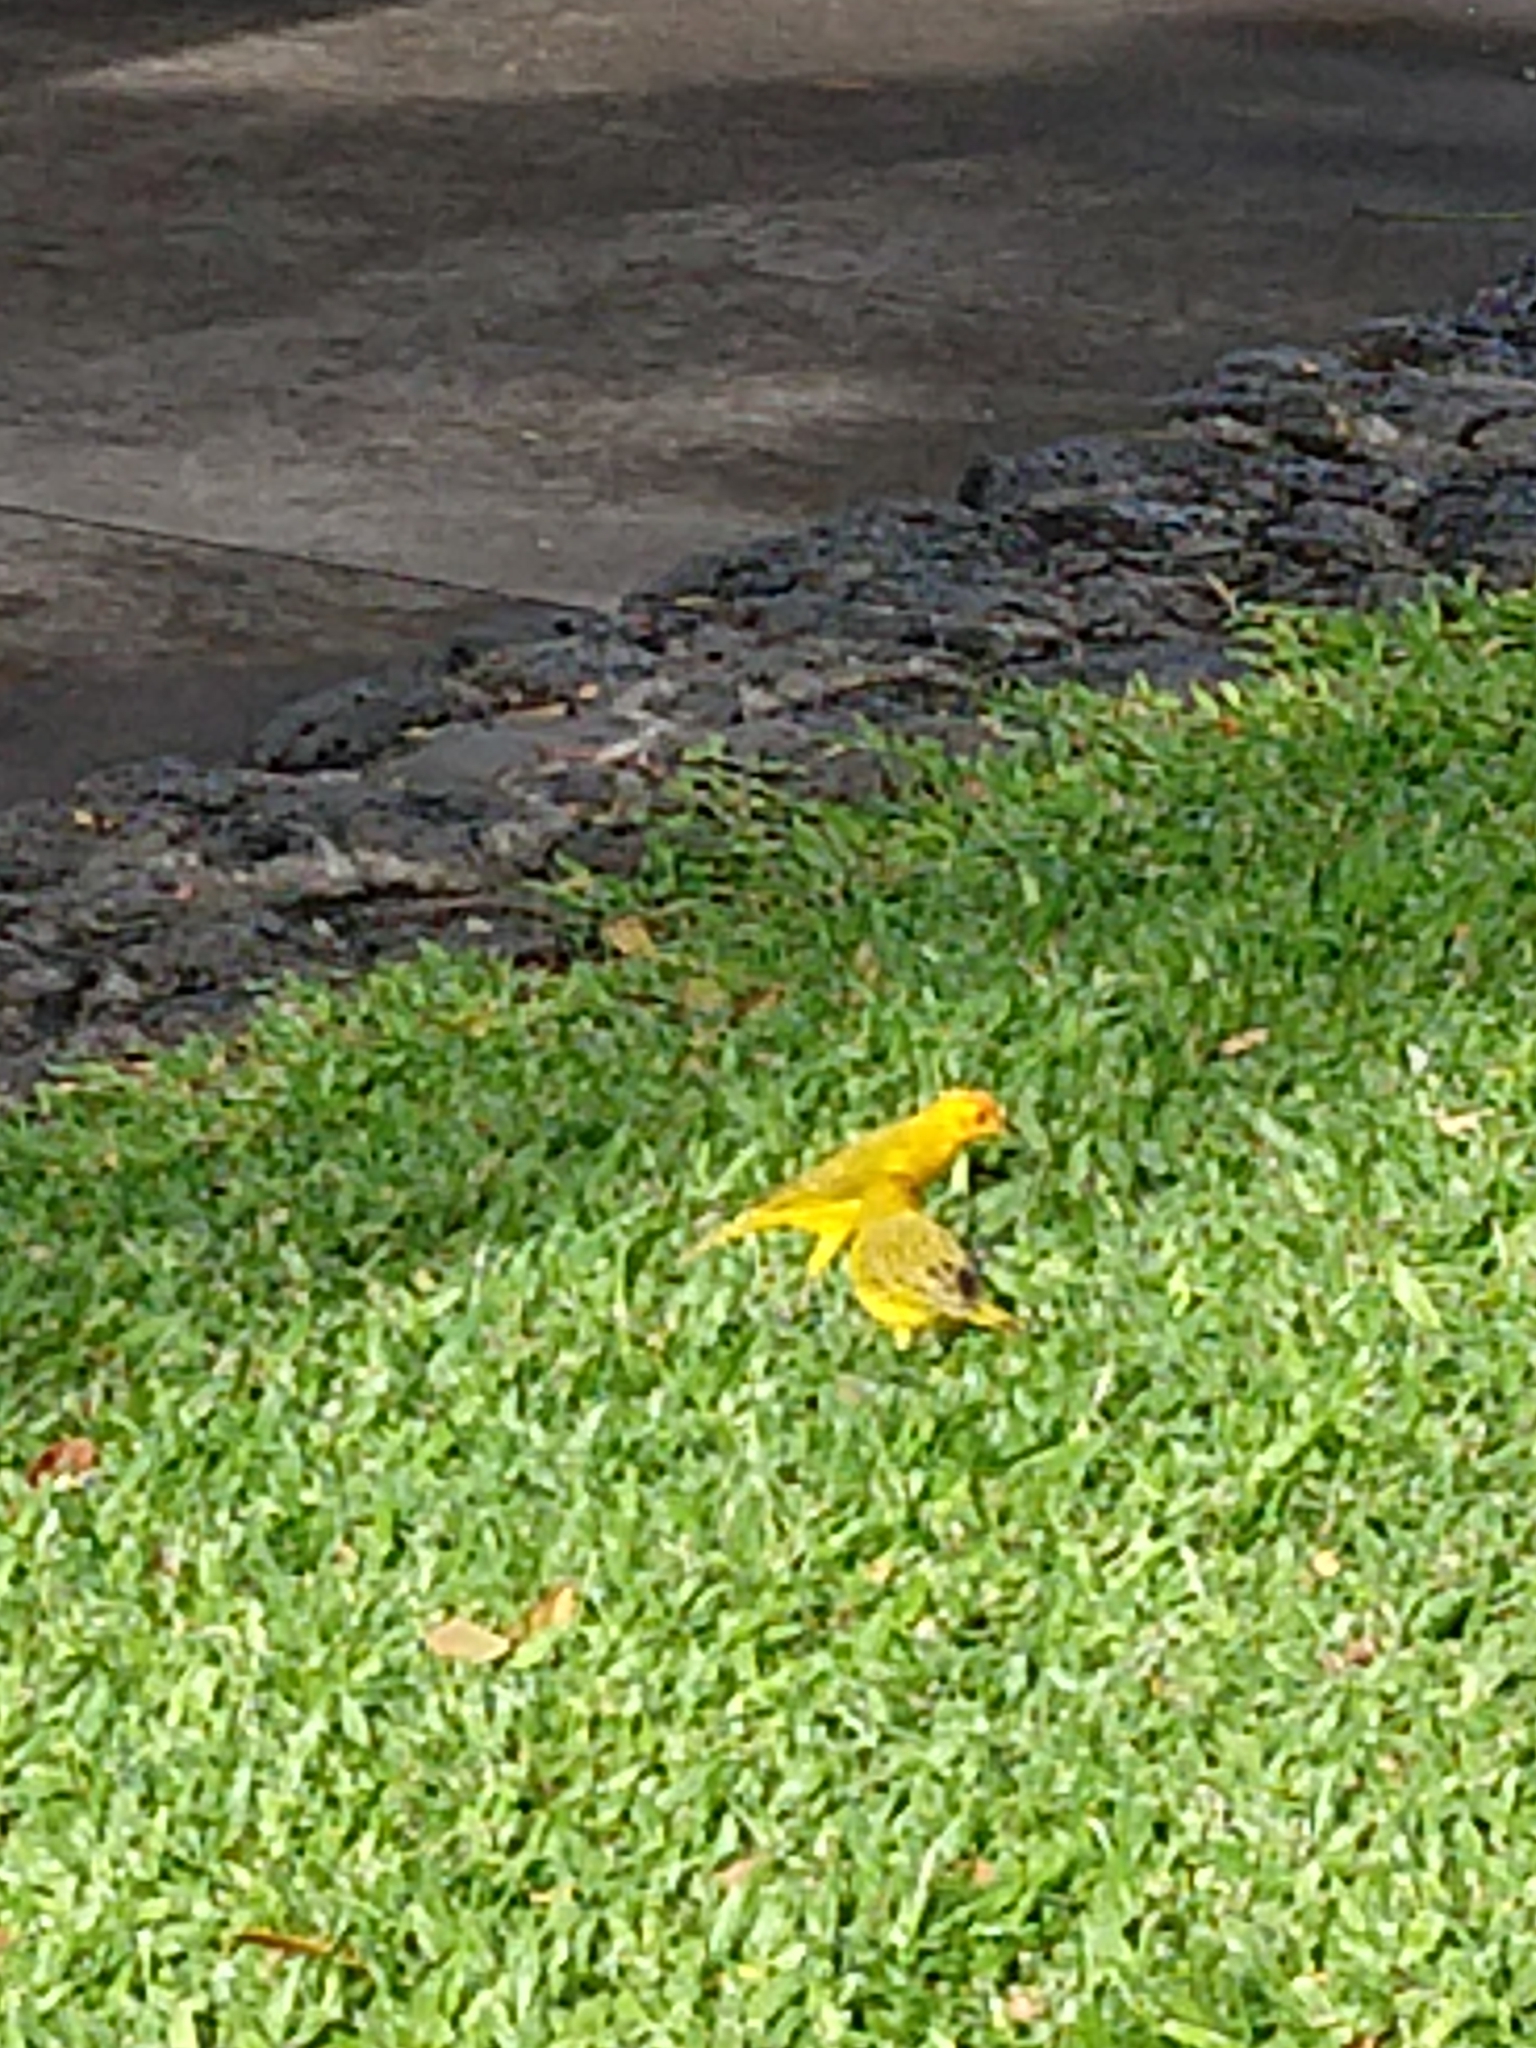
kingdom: Animalia
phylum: Chordata
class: Aves
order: Passeriformes
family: Thraupidae
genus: Sicalis
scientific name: Sicalis flaveola
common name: Saffron finch
